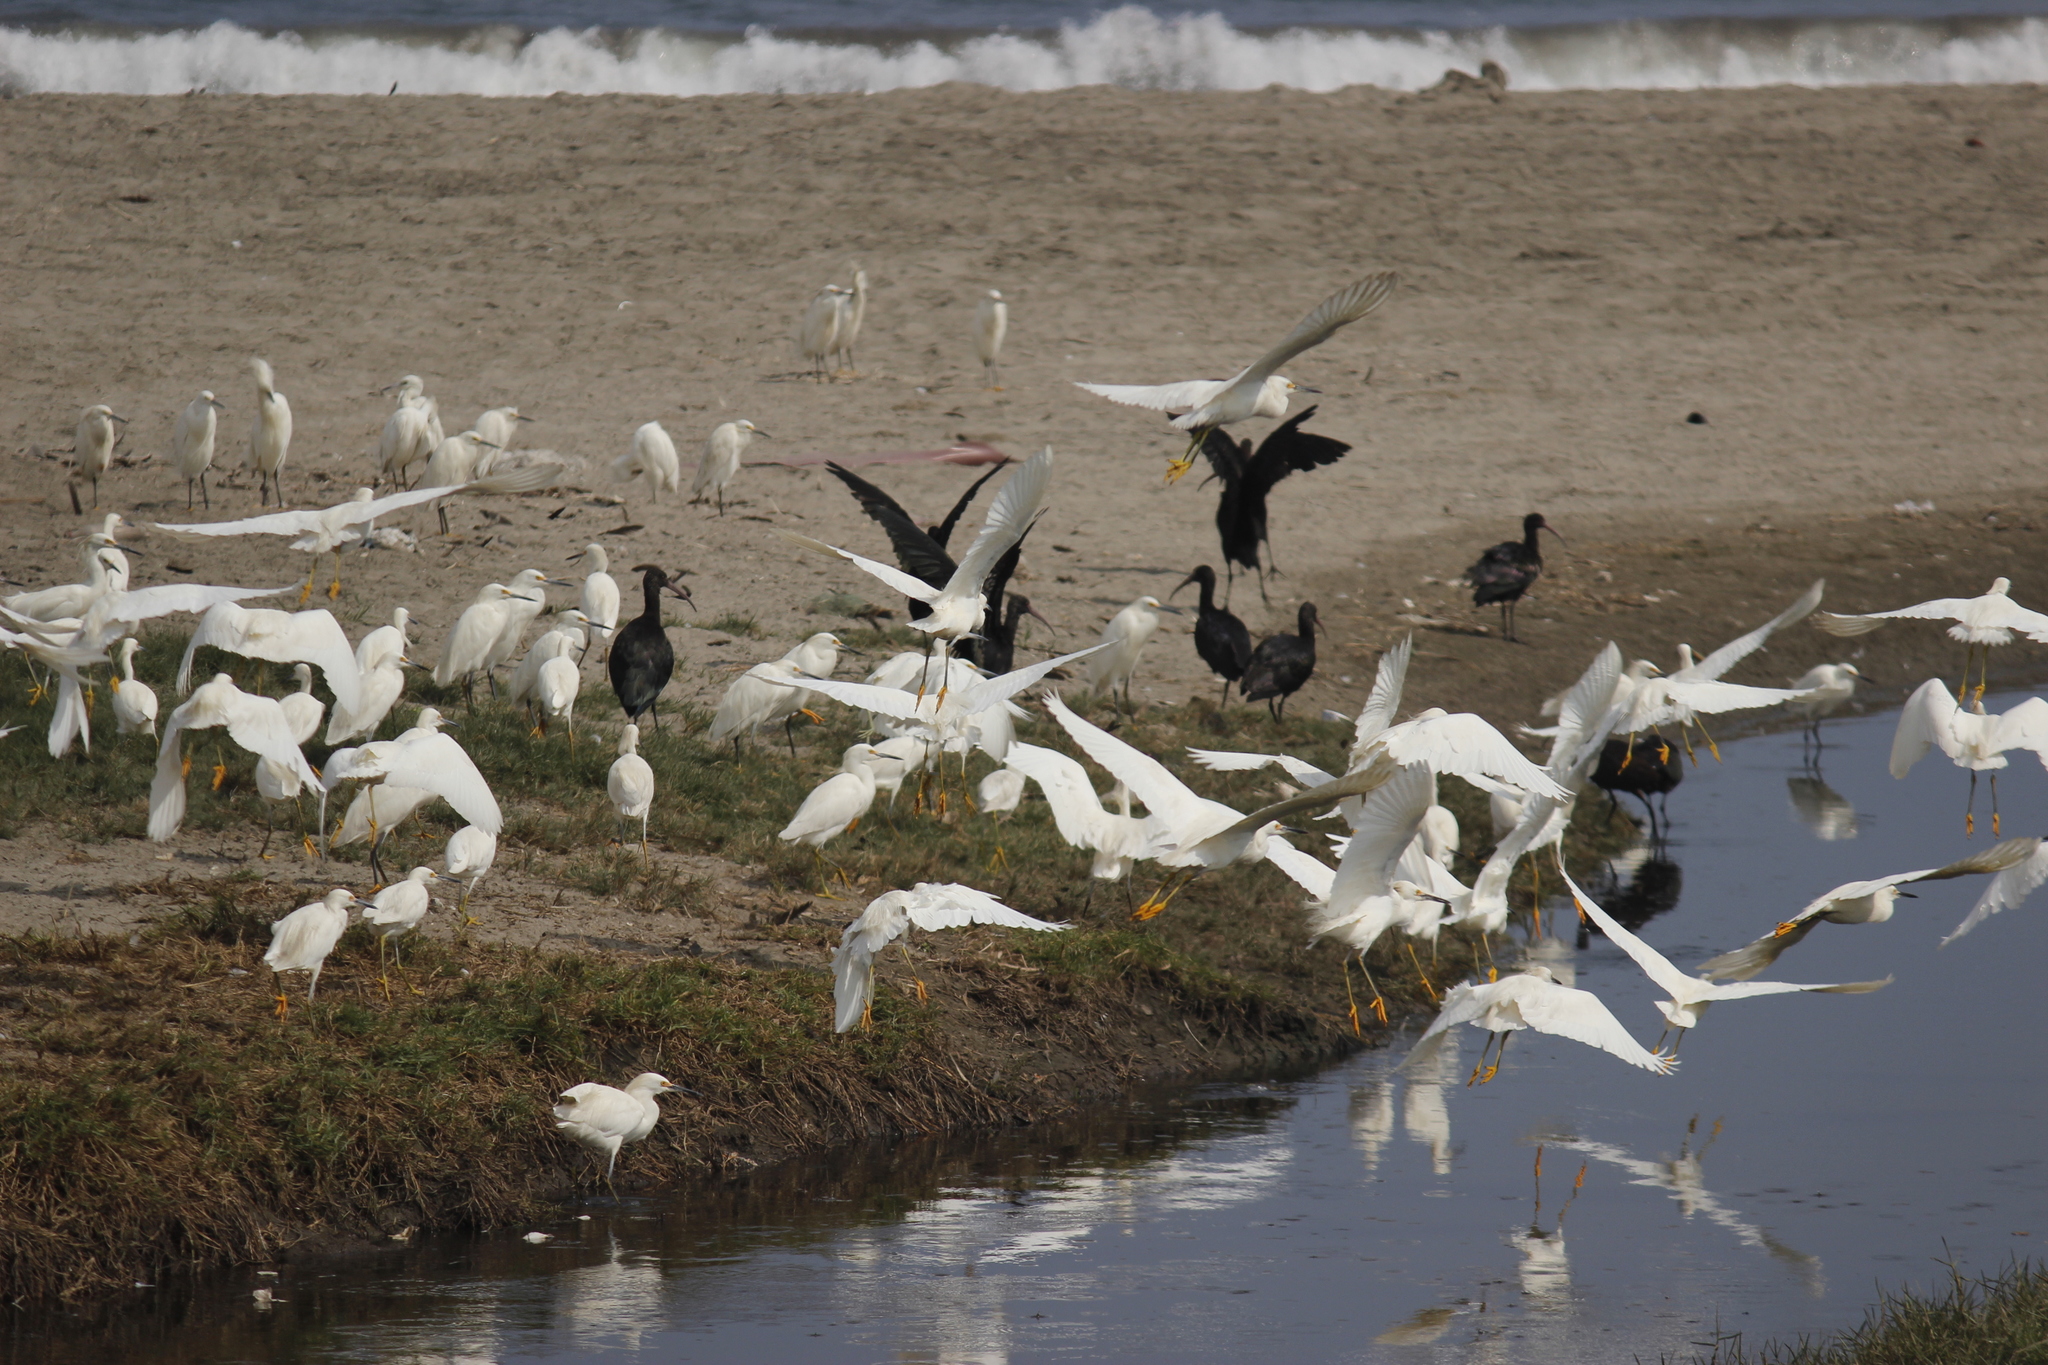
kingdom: Animalia
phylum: Chordata
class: Aves
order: Pelecaniformes
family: Ardeidae
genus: Egretta
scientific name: Egretta thula
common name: Snowy egret
